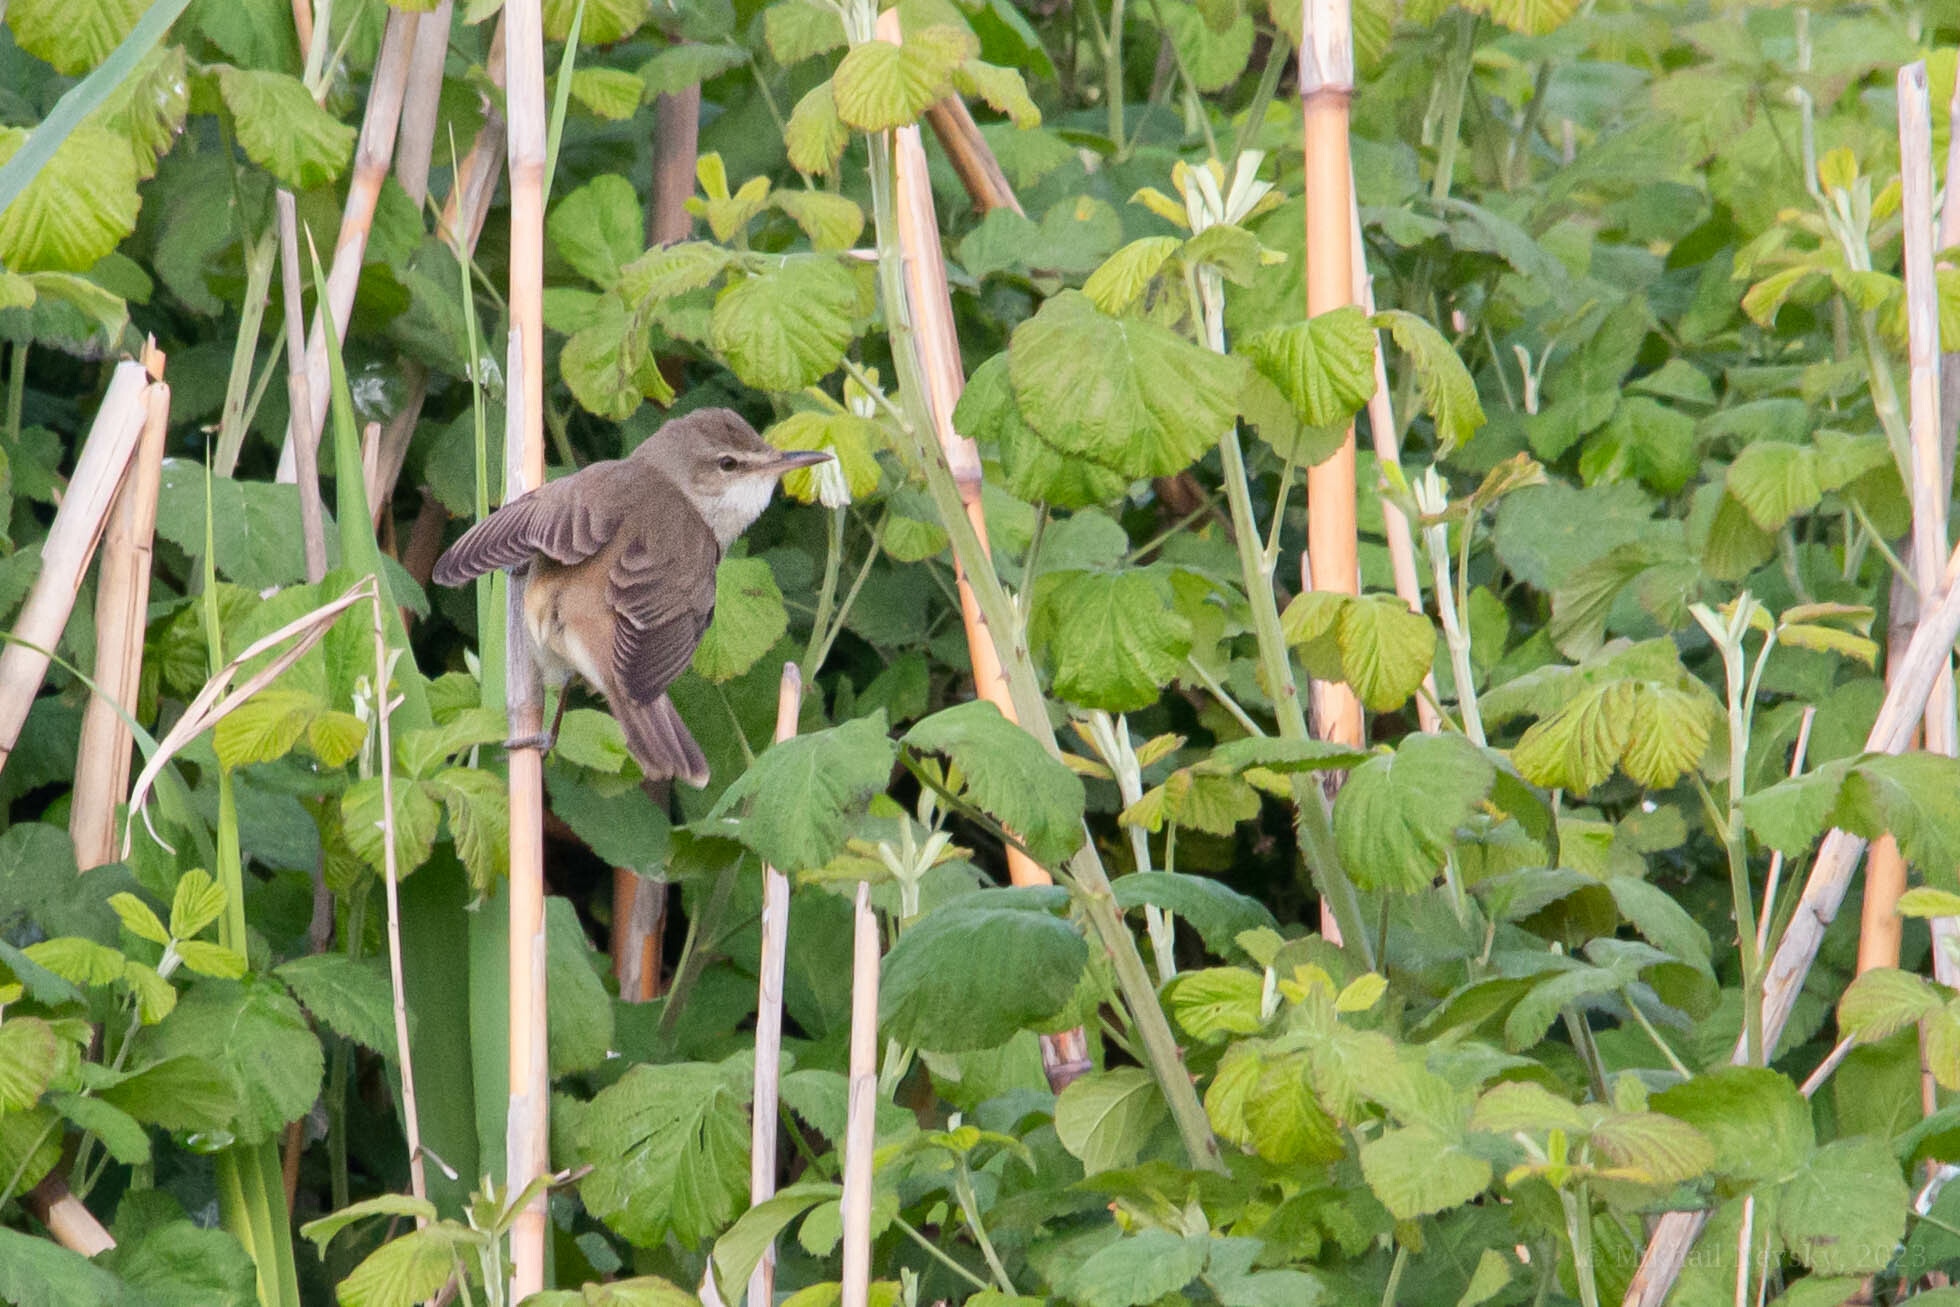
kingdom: Animalia
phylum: Chordata
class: Aves
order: Passeriformes
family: Acrocephalidae
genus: Acrocephalus
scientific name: Acrocephalus arundinaceus
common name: Great reed warbler
